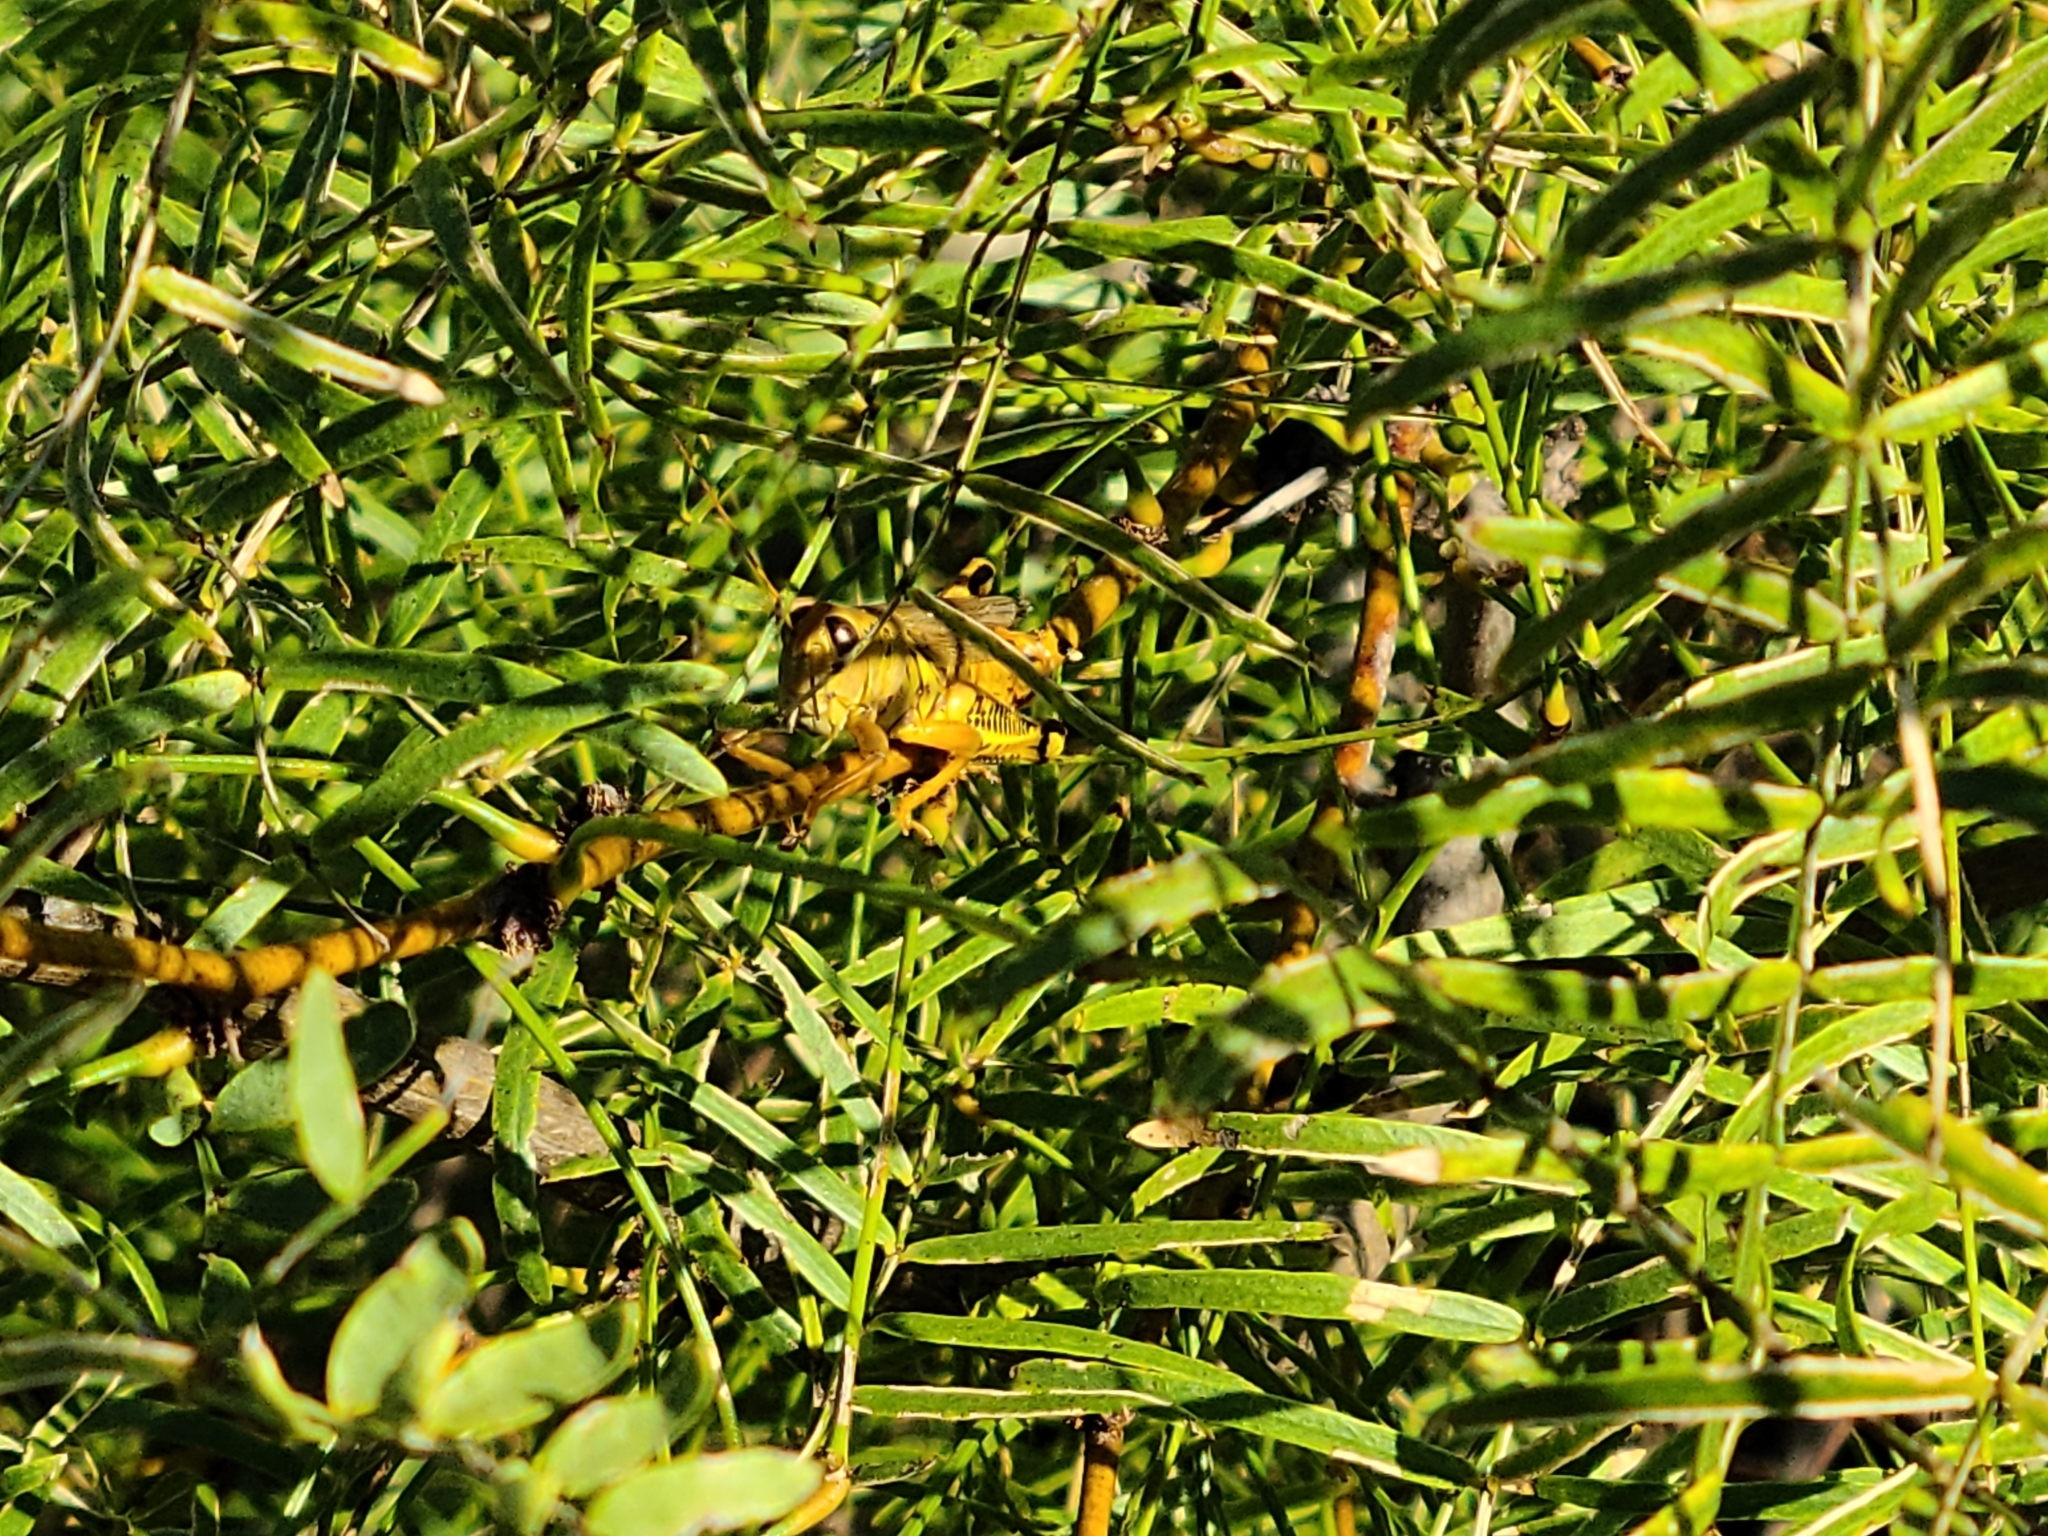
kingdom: Plantae
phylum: Tracheophyta
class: Magnoliopsida
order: Fabales
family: Fabaceae
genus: Prosopis
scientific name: Prosopis glandulosa
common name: Honey mesquite
